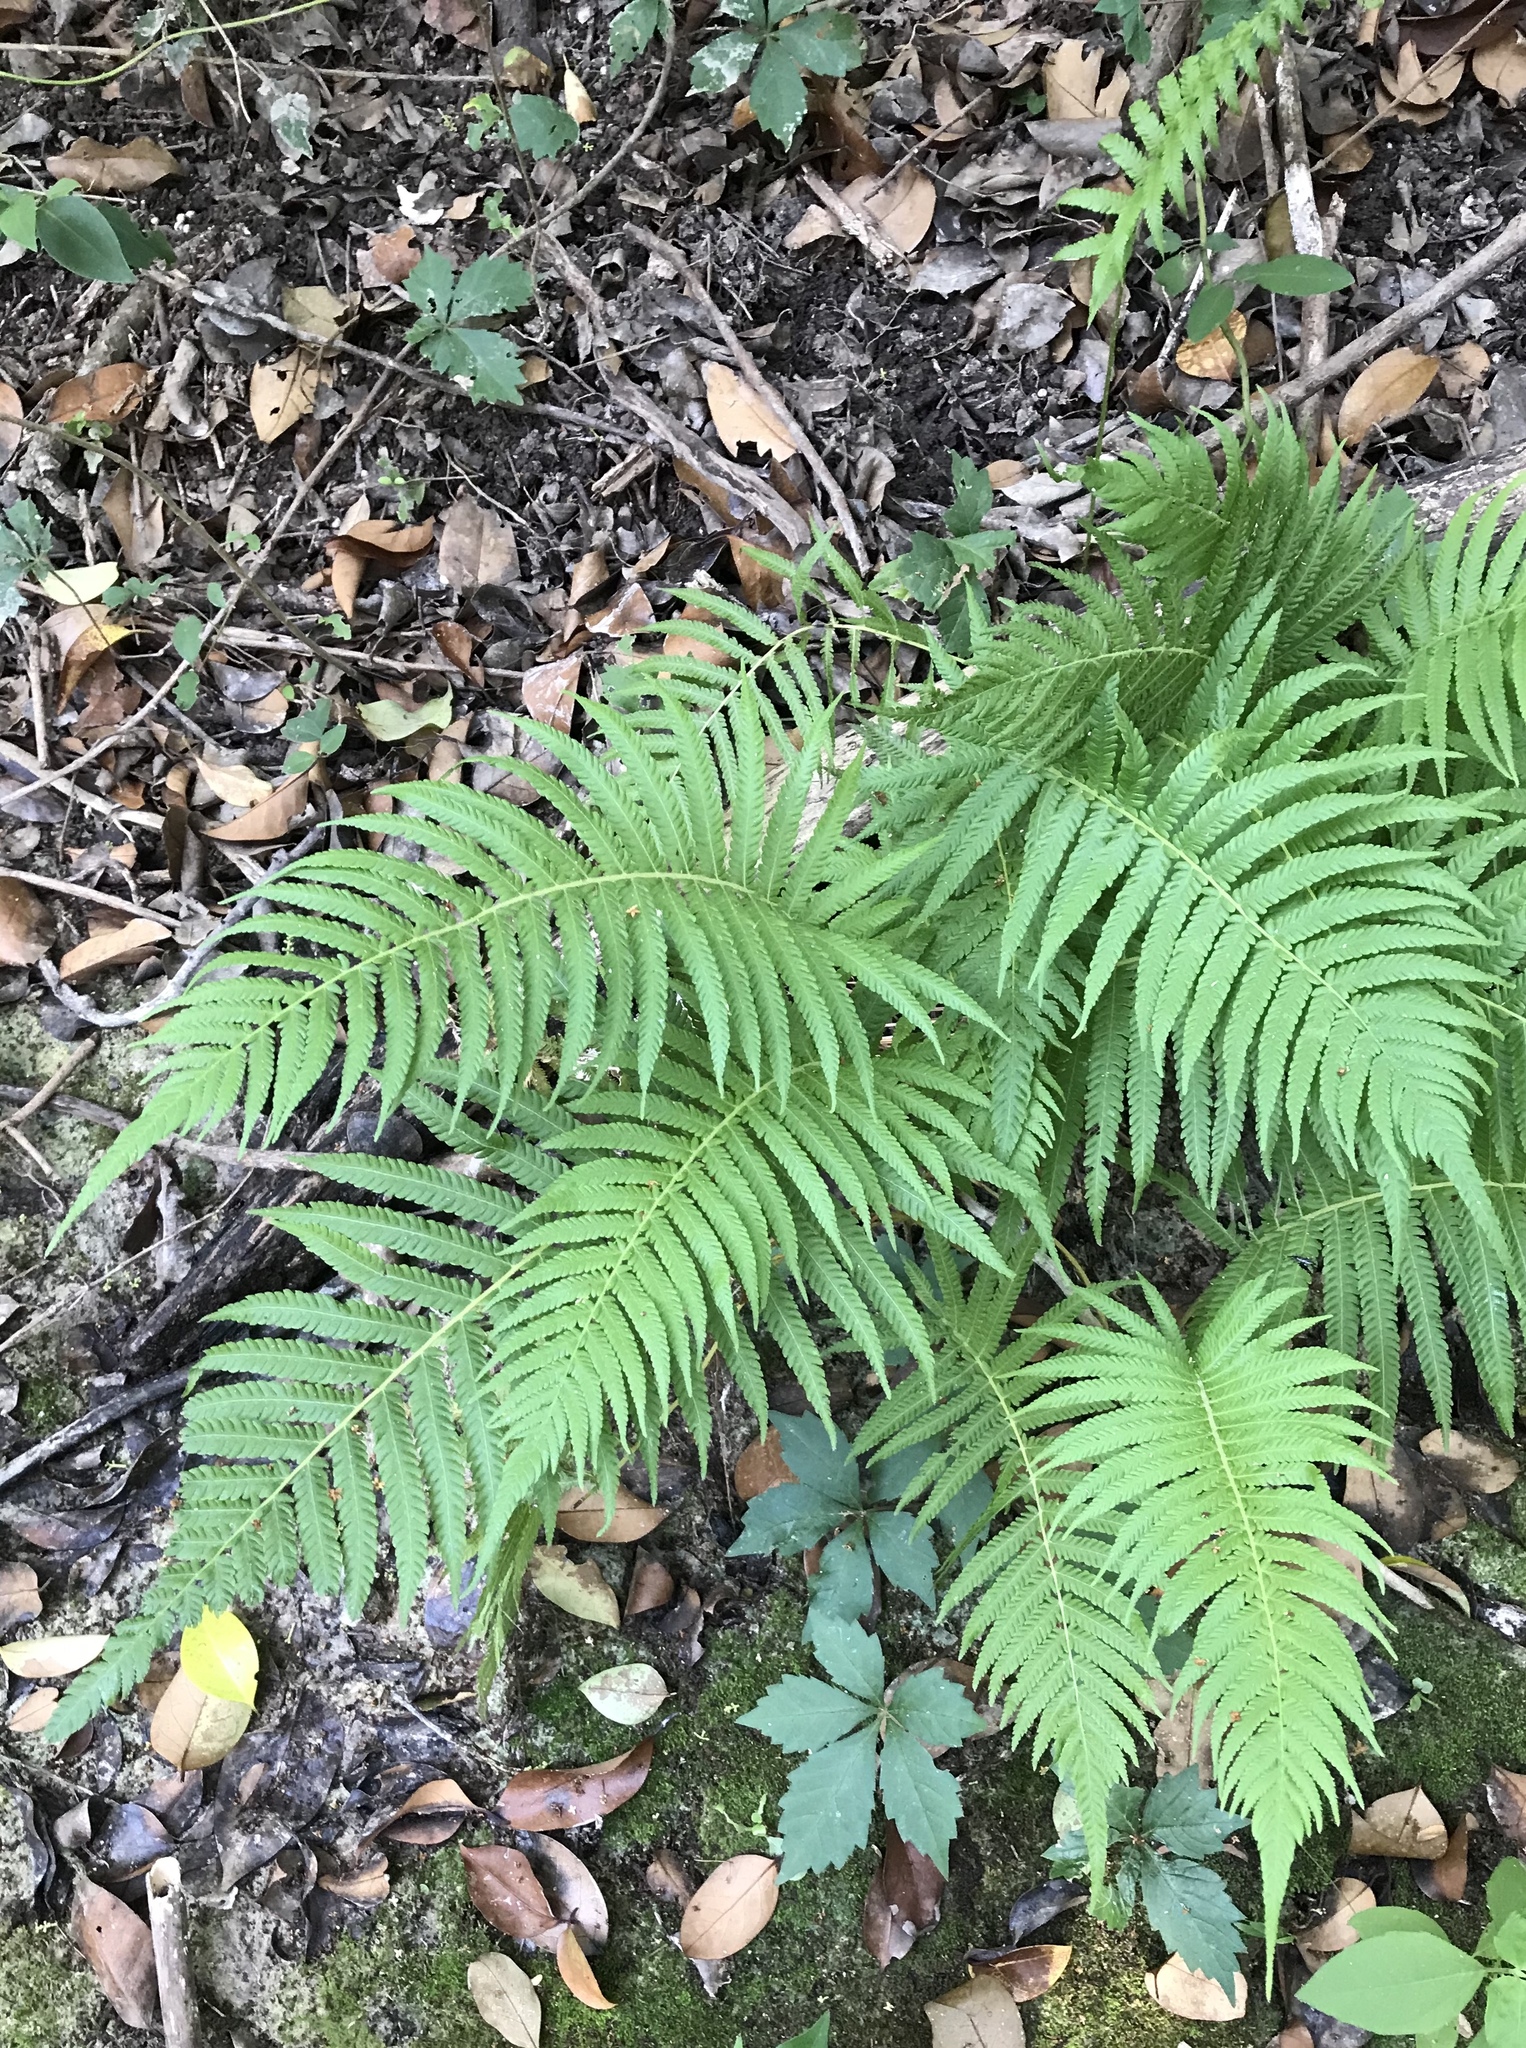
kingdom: Plantae
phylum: Tracheophyta
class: Polypodiopsida
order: Polypodiales
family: Thelypteridaceae
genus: Pelazoneuron
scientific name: Pelazoneuron ovatum
